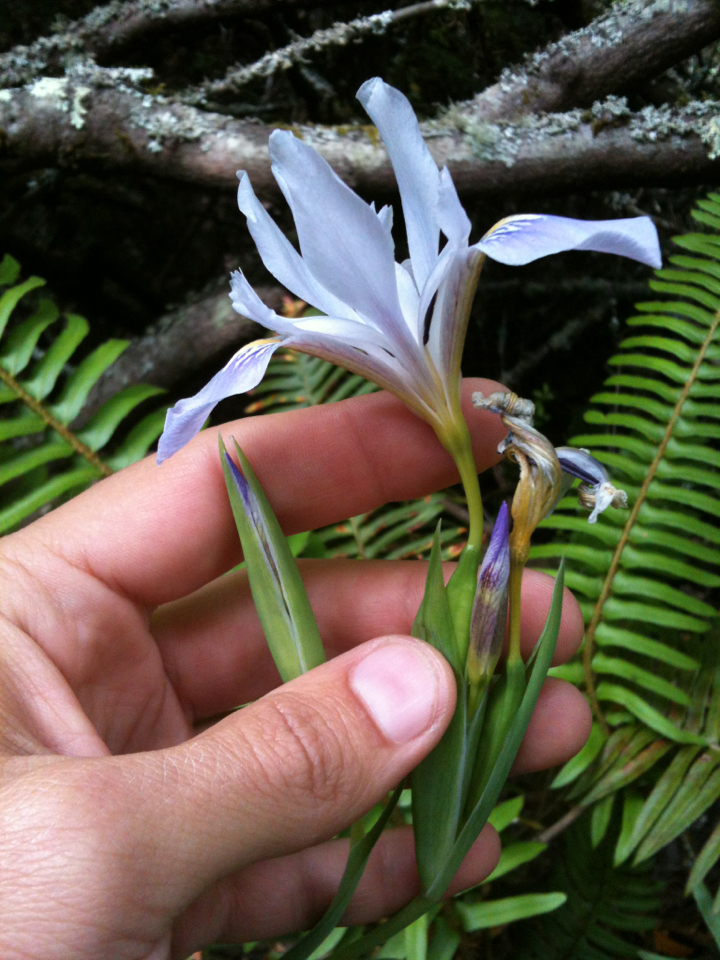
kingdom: Plantae
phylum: Tracheophyta
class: Liliopsida
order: Asparagales
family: Iridaceae
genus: Iris
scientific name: Iris douglasiana
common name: Marin iris
